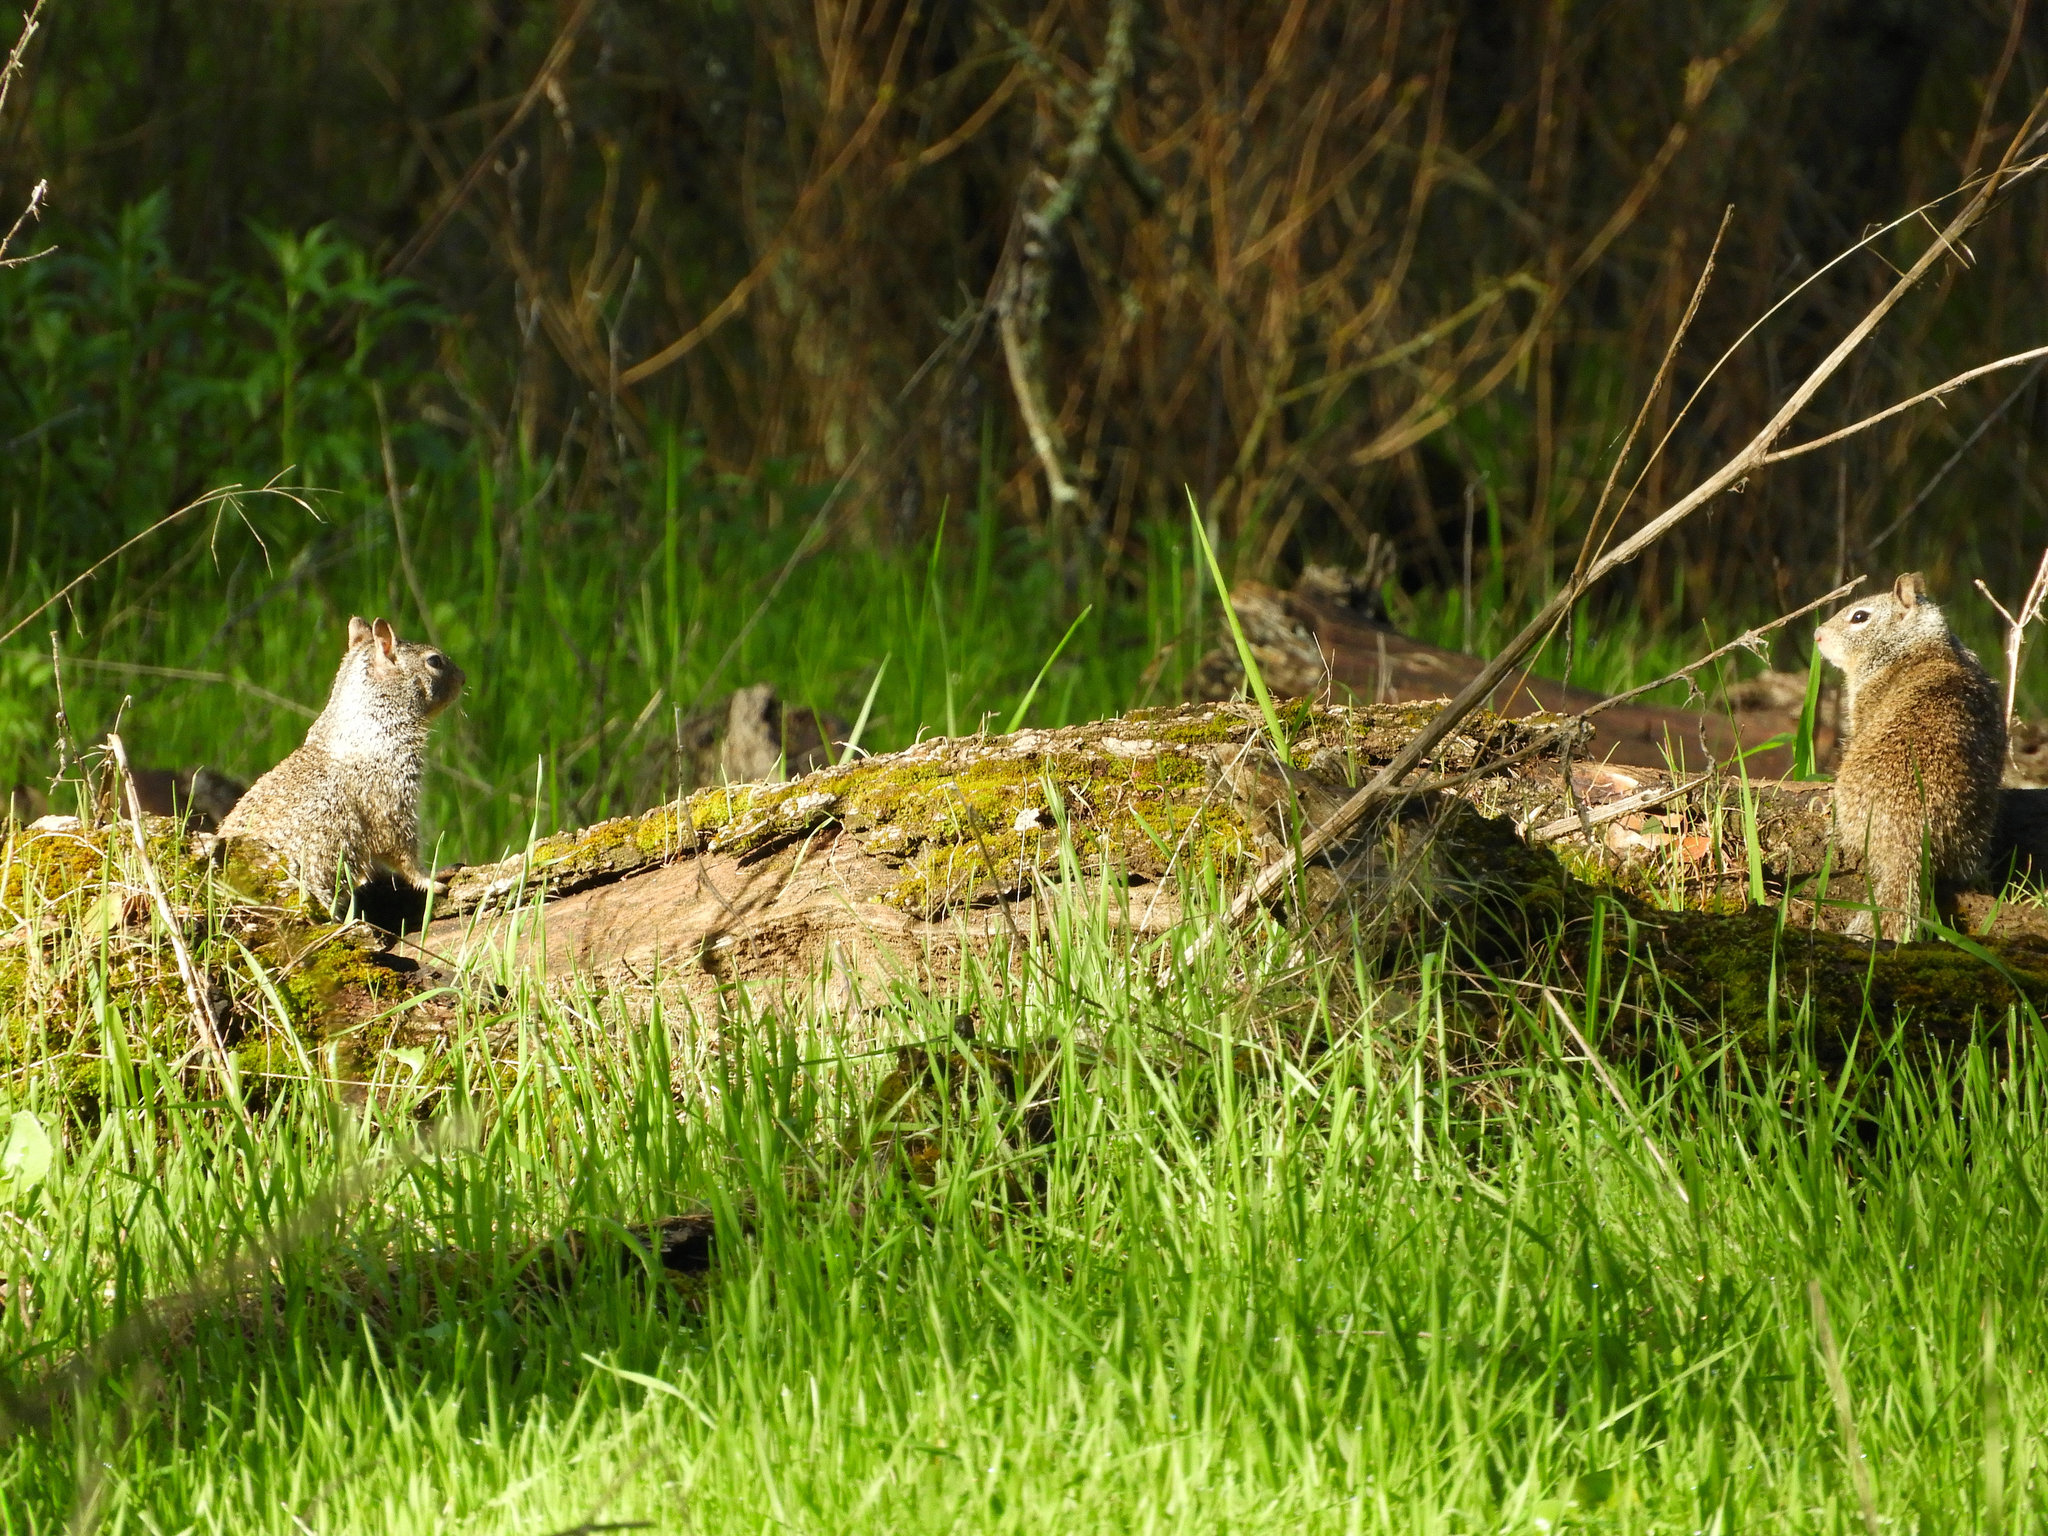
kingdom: Animalia
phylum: Chordata
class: Mammalia
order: Rodentia
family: Sciuridae
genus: Otospermophilus
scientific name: Otospermophilus beecheyi
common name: California ground squirrel
